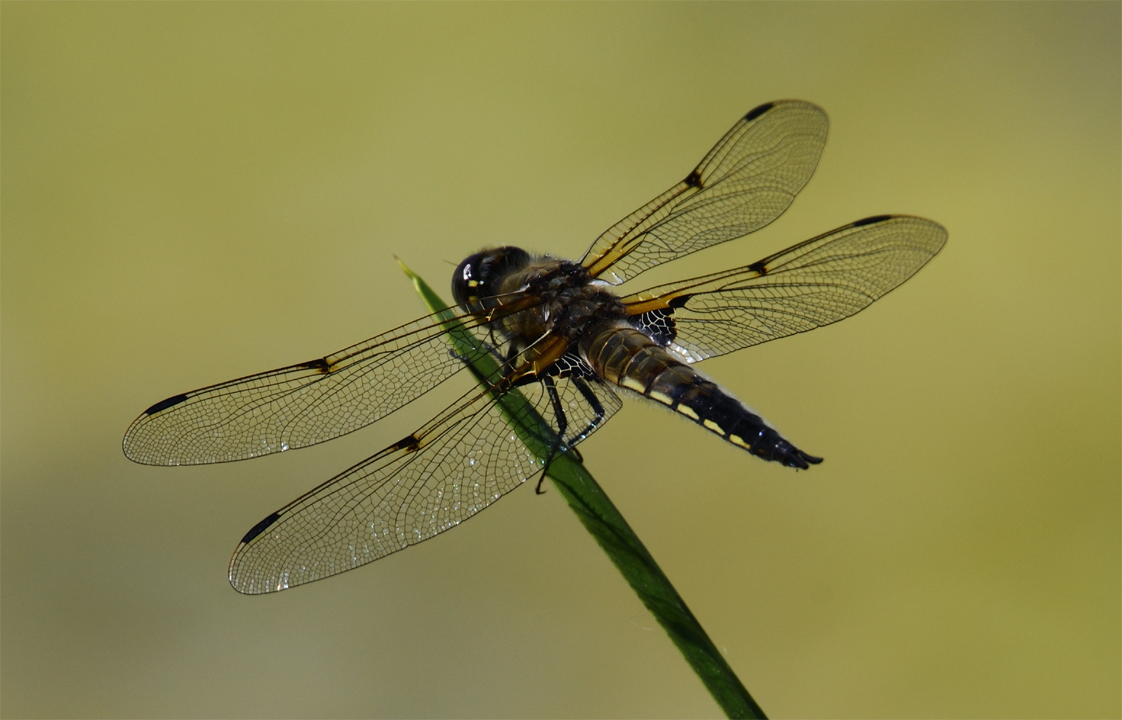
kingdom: Animalia
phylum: Arthropoda
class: Insecta
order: Odonata
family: Libellulidae
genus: Libellula
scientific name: Libellula quadrimaculata
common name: Four-spotted chaser
